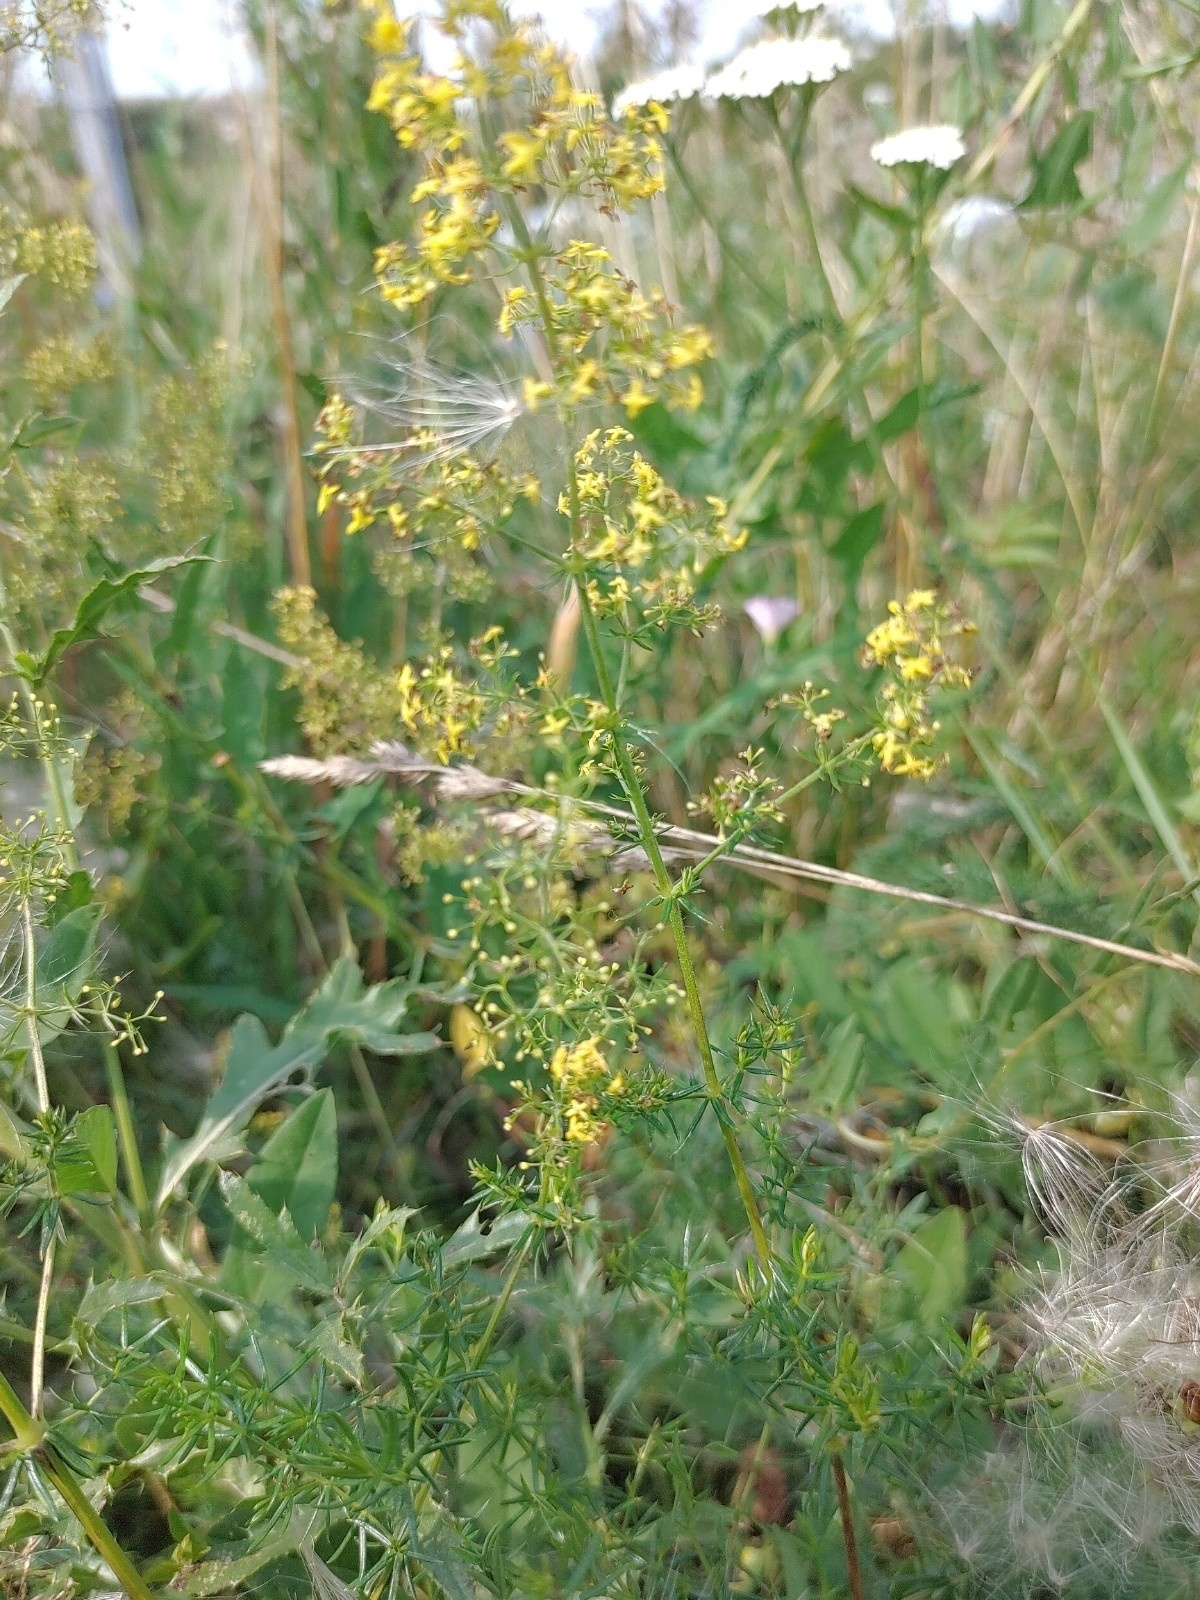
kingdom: Plantae
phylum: Tracheophyta
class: Magnoliopsida
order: Gentianales
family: Rubiaceae
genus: Galium
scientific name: Galium verum
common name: Lady's bedstraw
